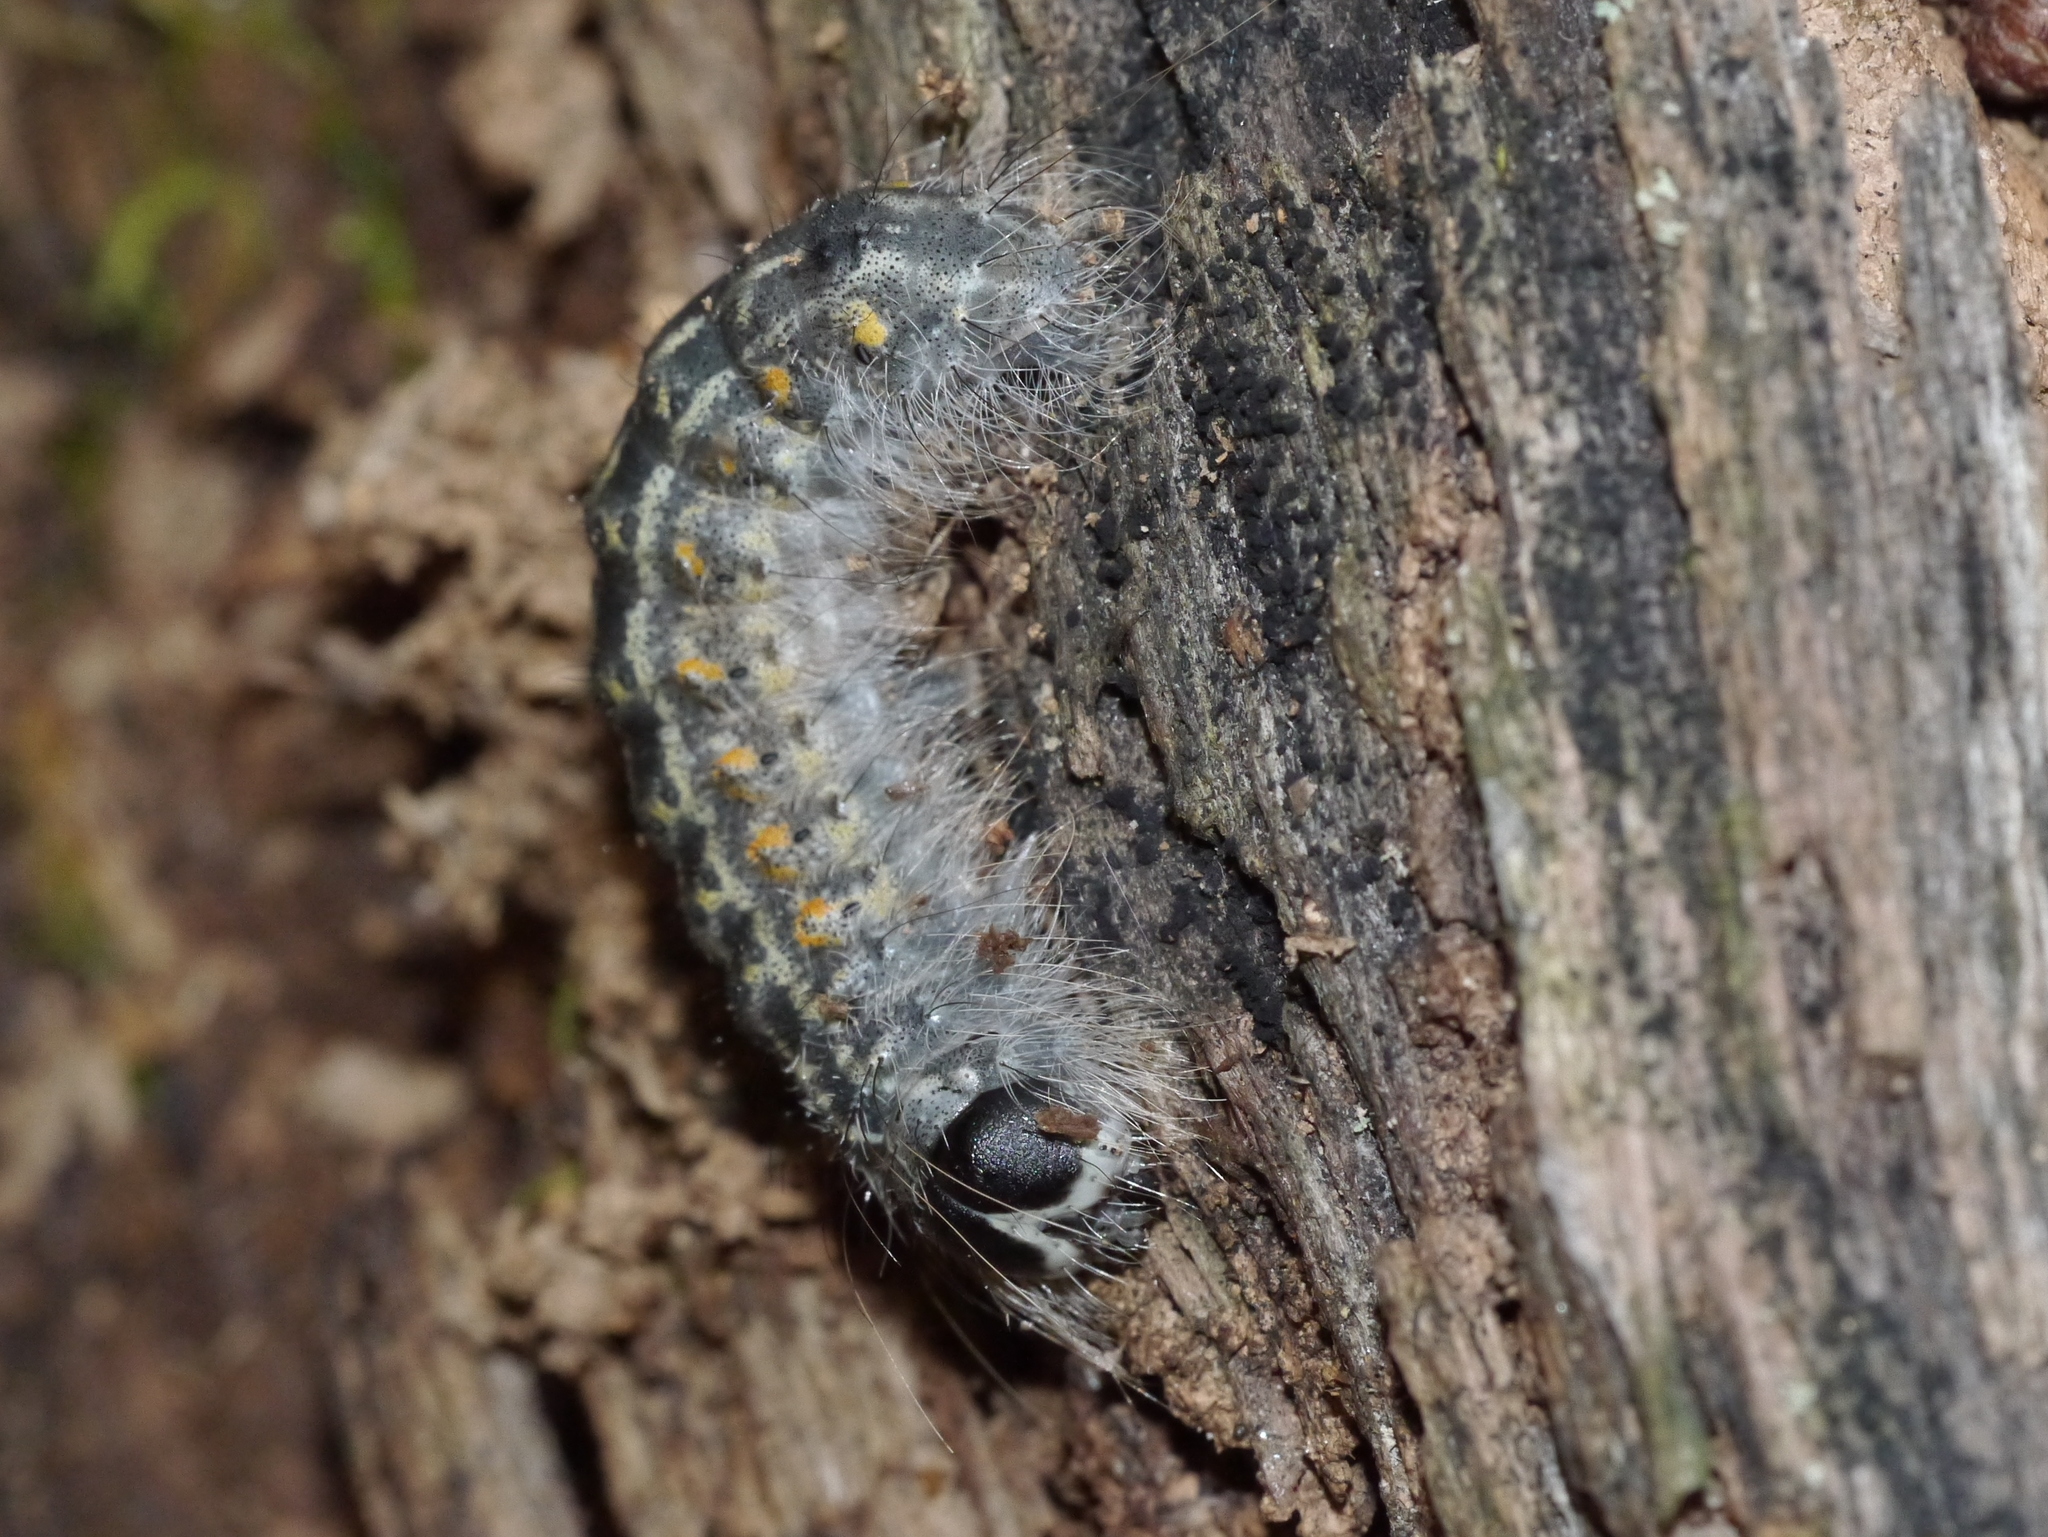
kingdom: Animalia
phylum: Arthropoda
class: Insecta
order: Lepidoptera
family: Noctuidae
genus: Acronicta
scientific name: Acronicta lobeliae
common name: Greater oak dagger
